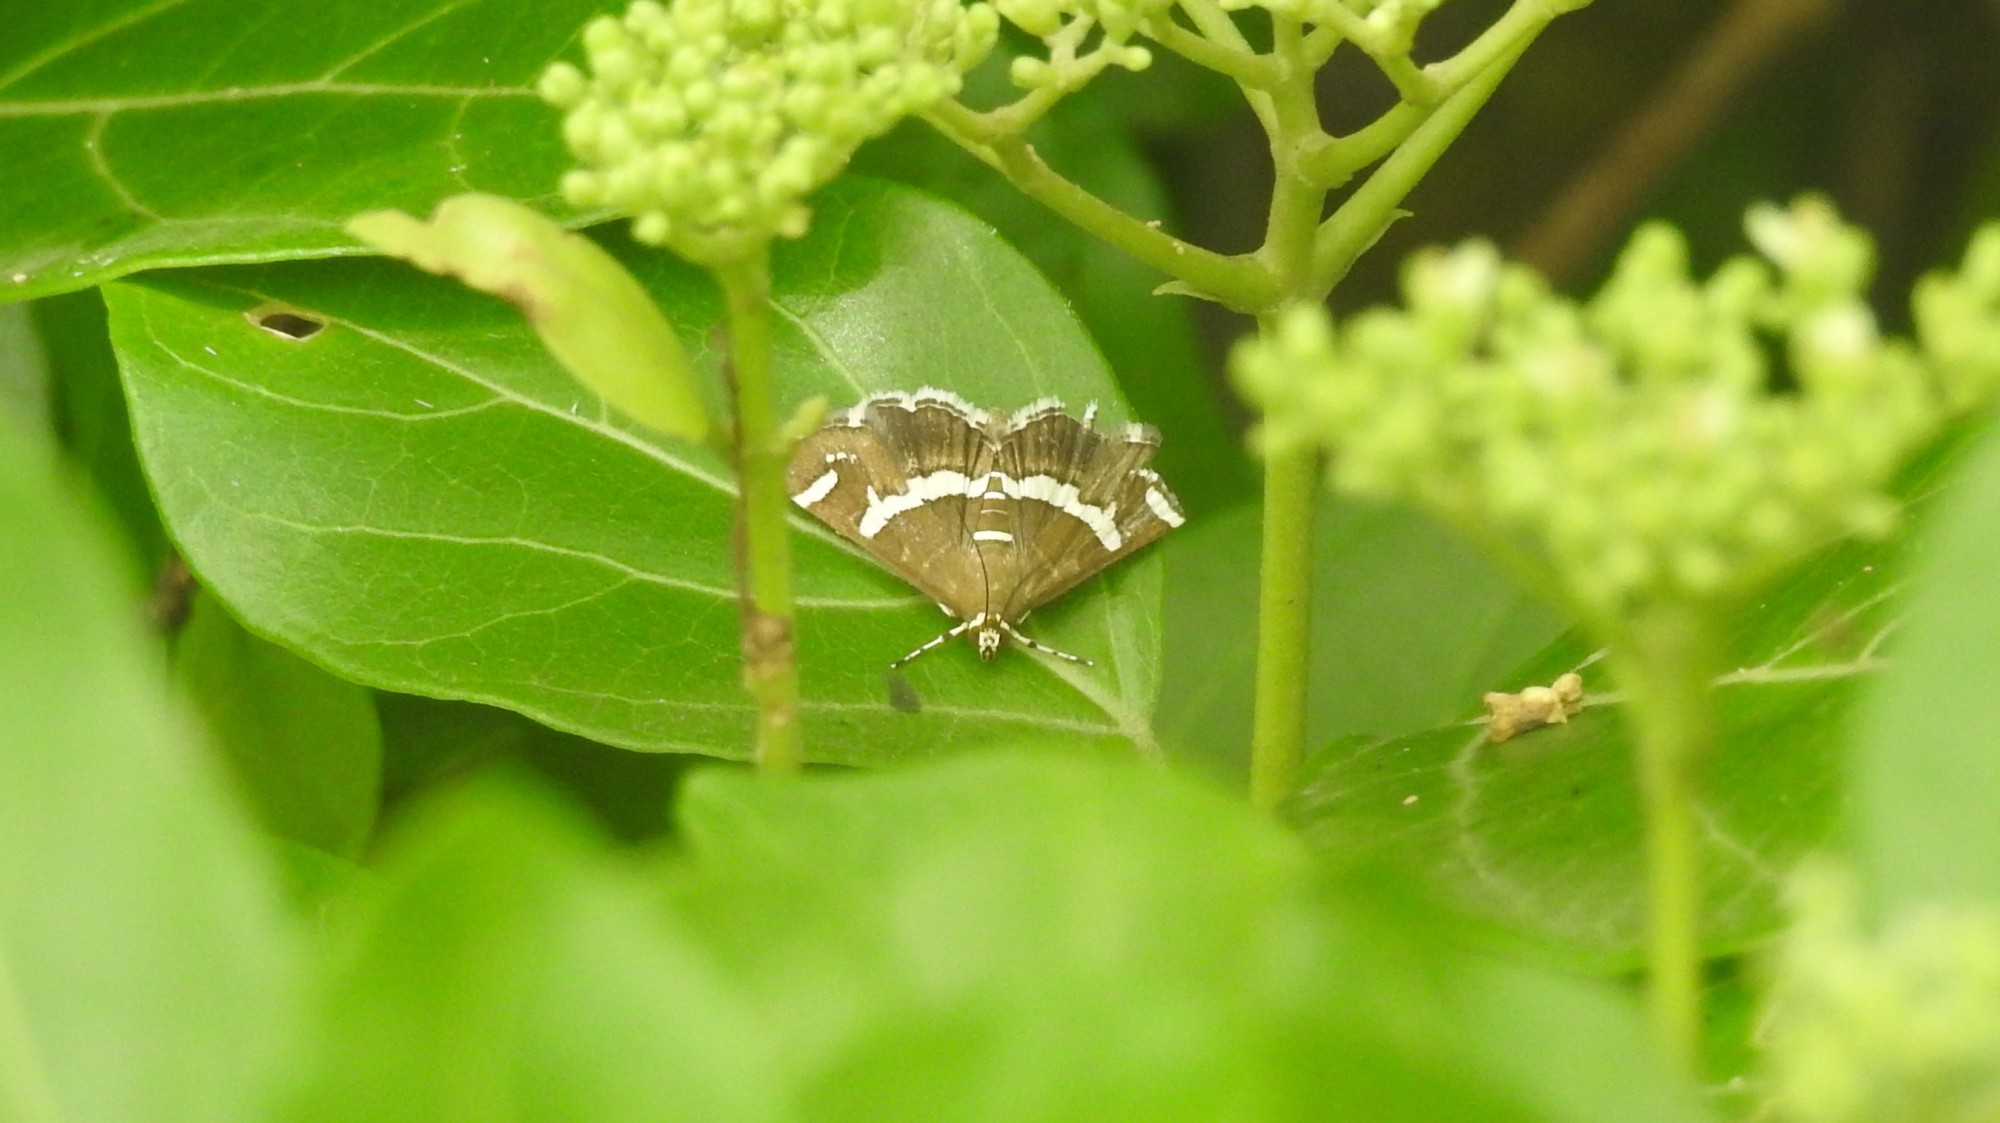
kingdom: Animalia
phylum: Arthropoda
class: Insecta
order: Lepidoptera
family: Crambidae
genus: Spoladea
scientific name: Spoladea recurvalis
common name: Beet webworm moth
